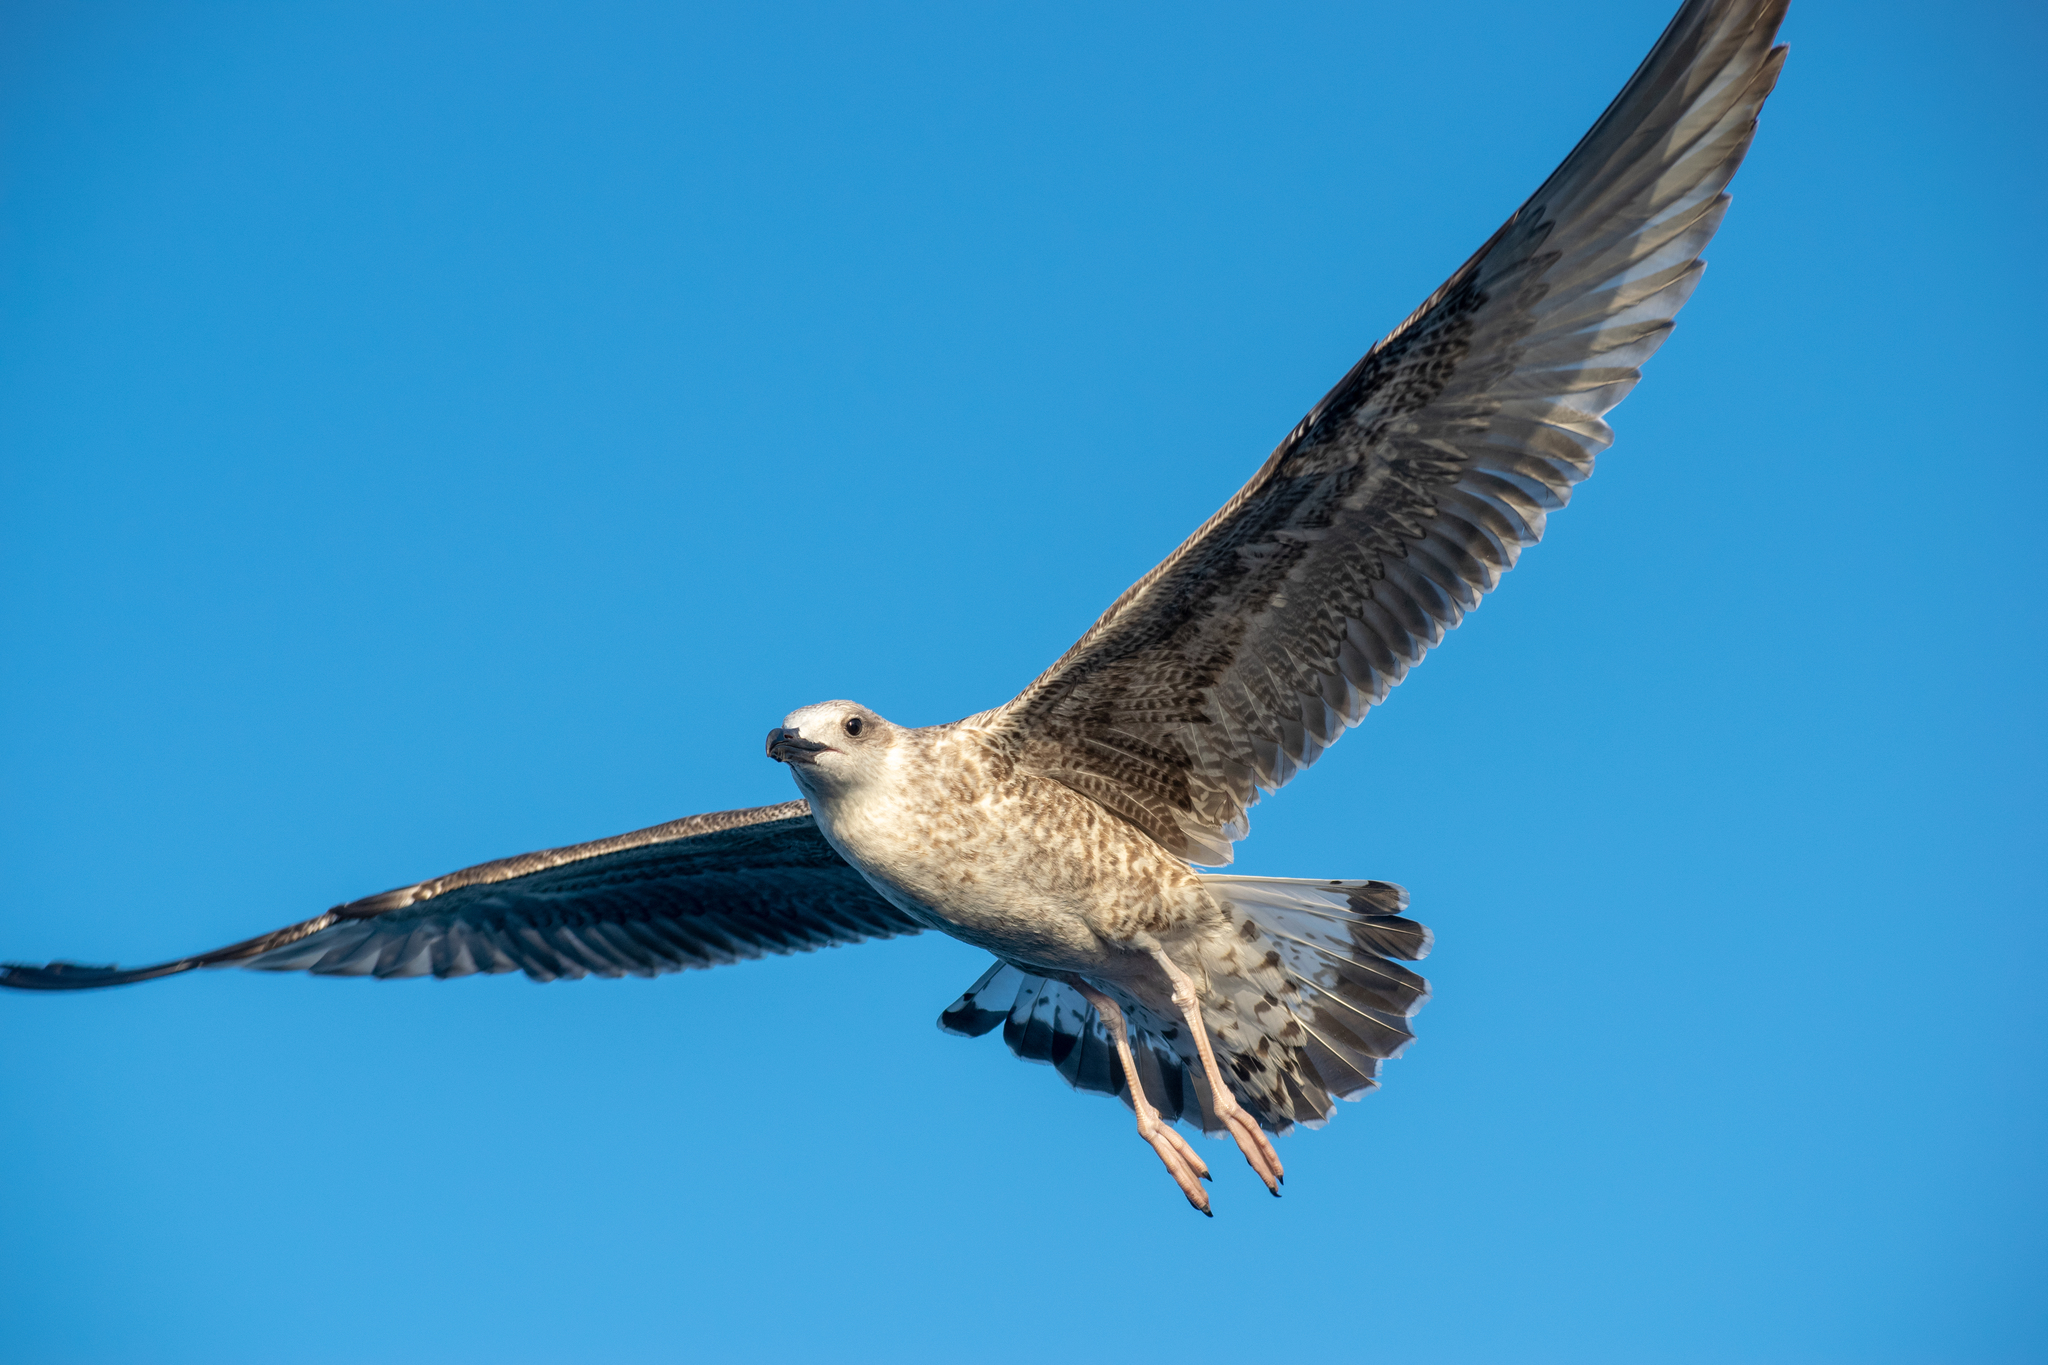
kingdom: Animalia
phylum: Chordata
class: Aves
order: Charadriiformes
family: Laridae
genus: Larus
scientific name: Larus michahellis
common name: Yellow-legged gull
